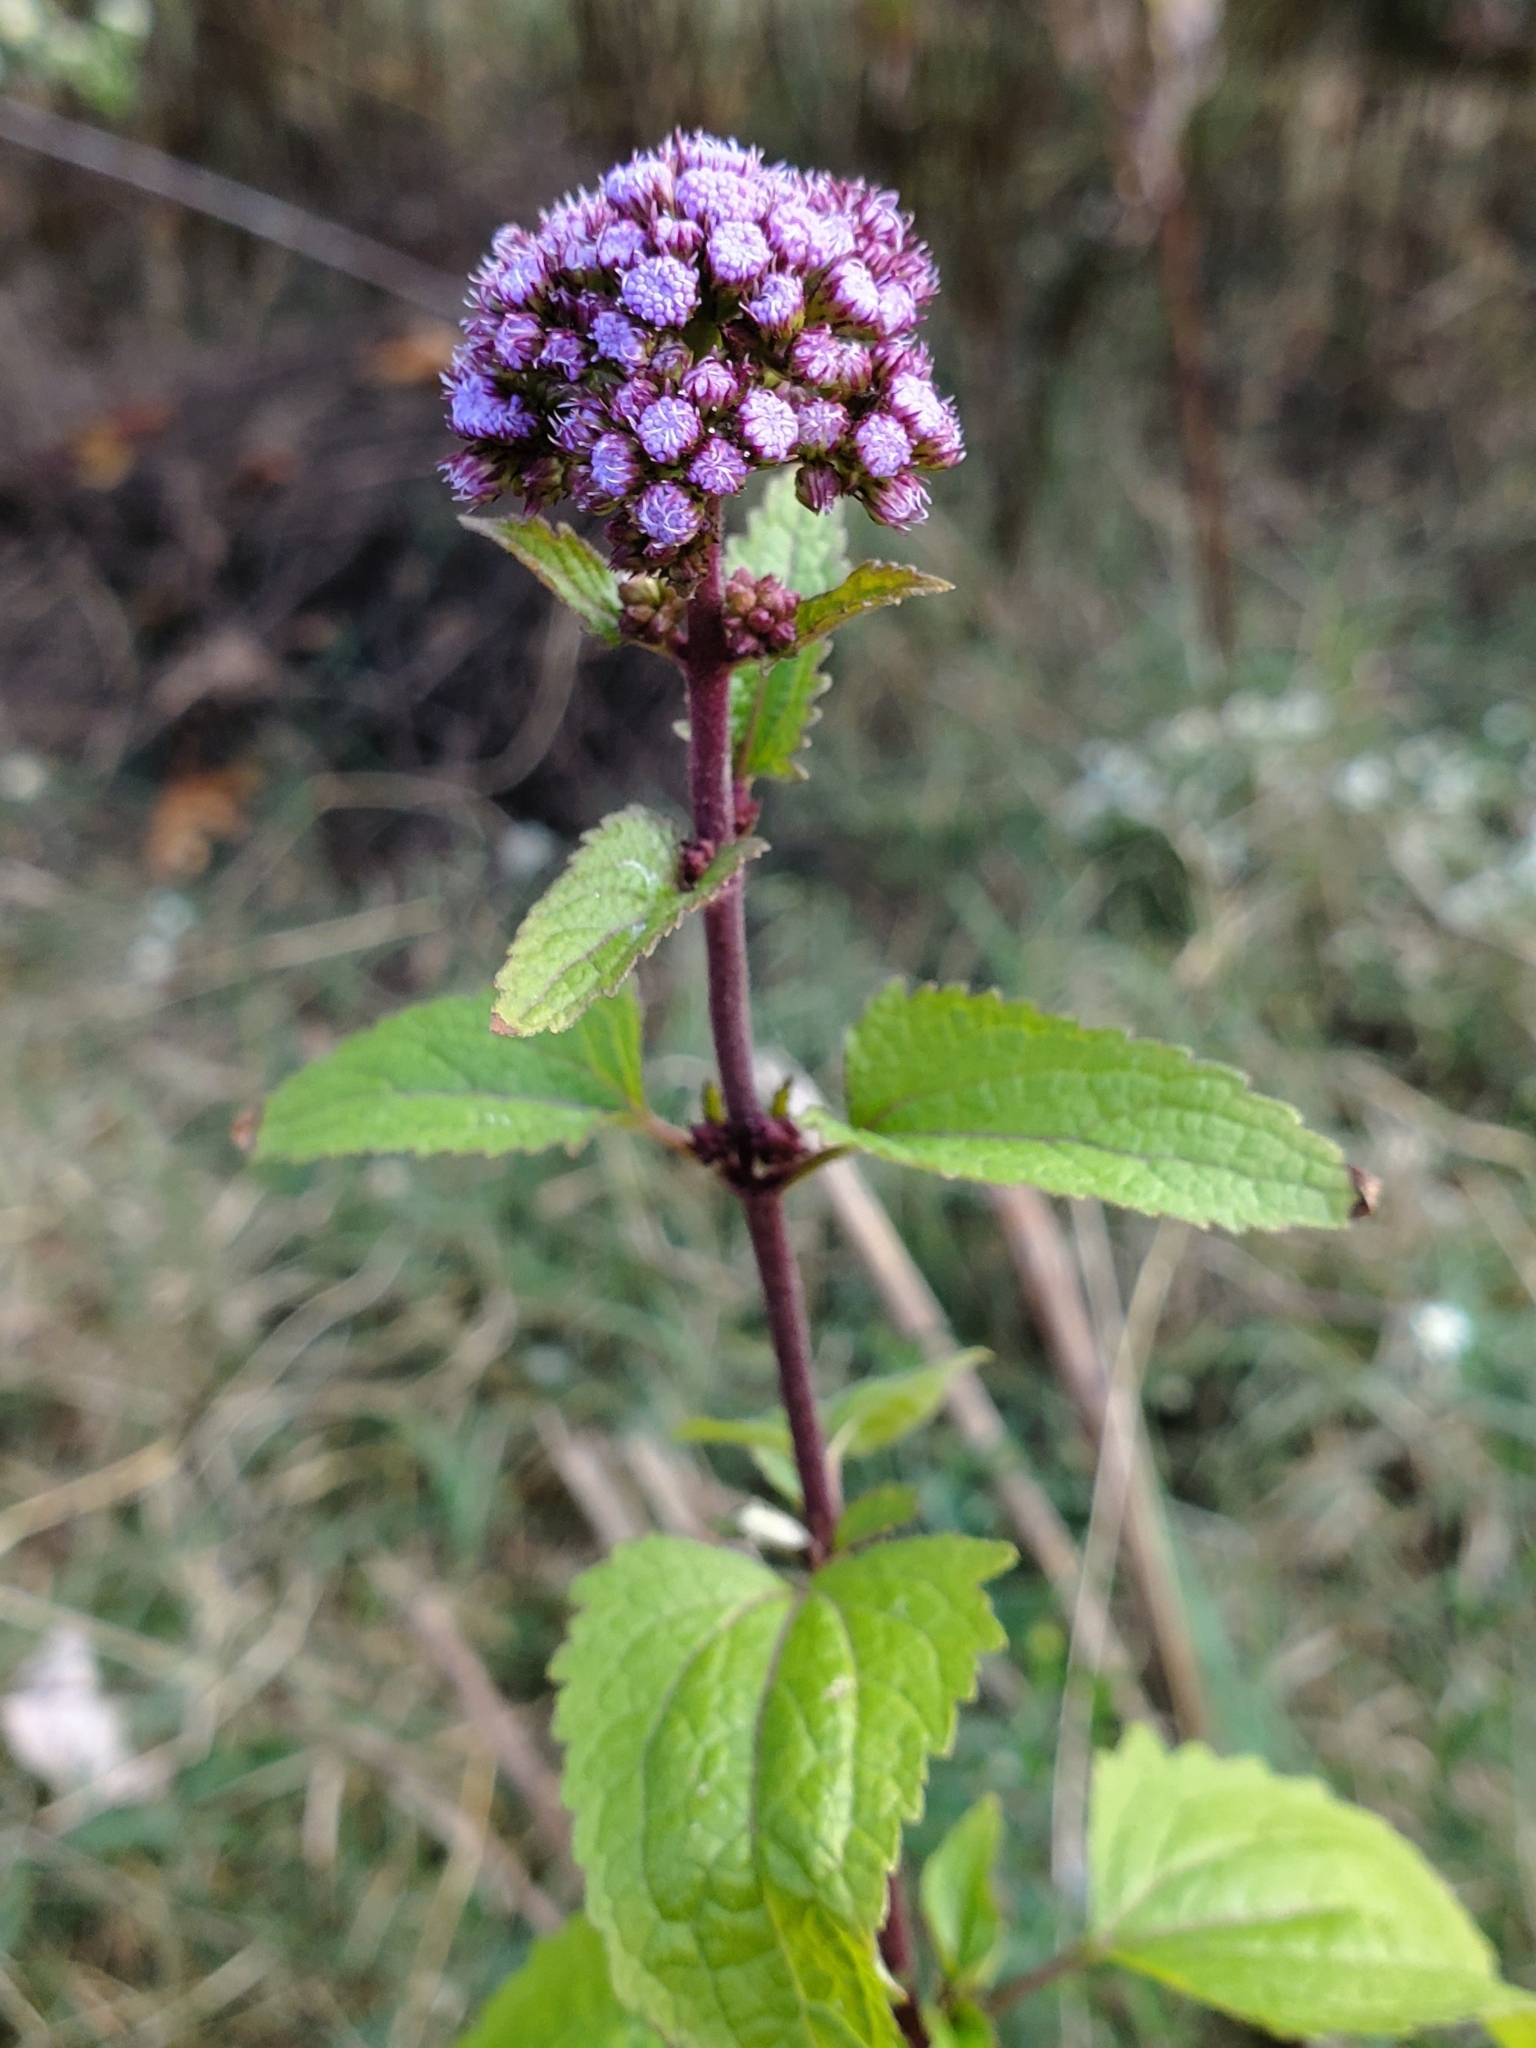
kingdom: Plantae
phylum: Tracheophyta
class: Magnoliopsida
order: Asterales
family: Asteraceae
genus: Conoclinium
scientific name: Conoclinium coelestinum
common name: Blue mistflower
